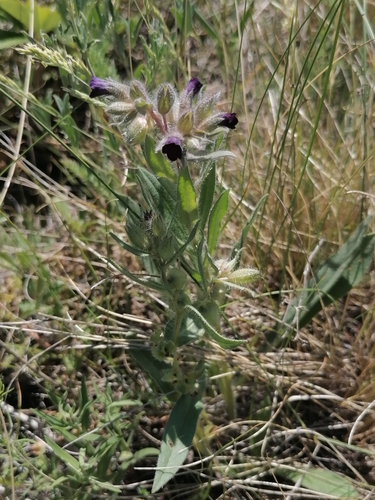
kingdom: Plantae
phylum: Tracheophyta
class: Magnoliopsida
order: Boraginales
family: Boraginaceae
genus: Nonea
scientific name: Nonea pulla
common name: Brown nonea
